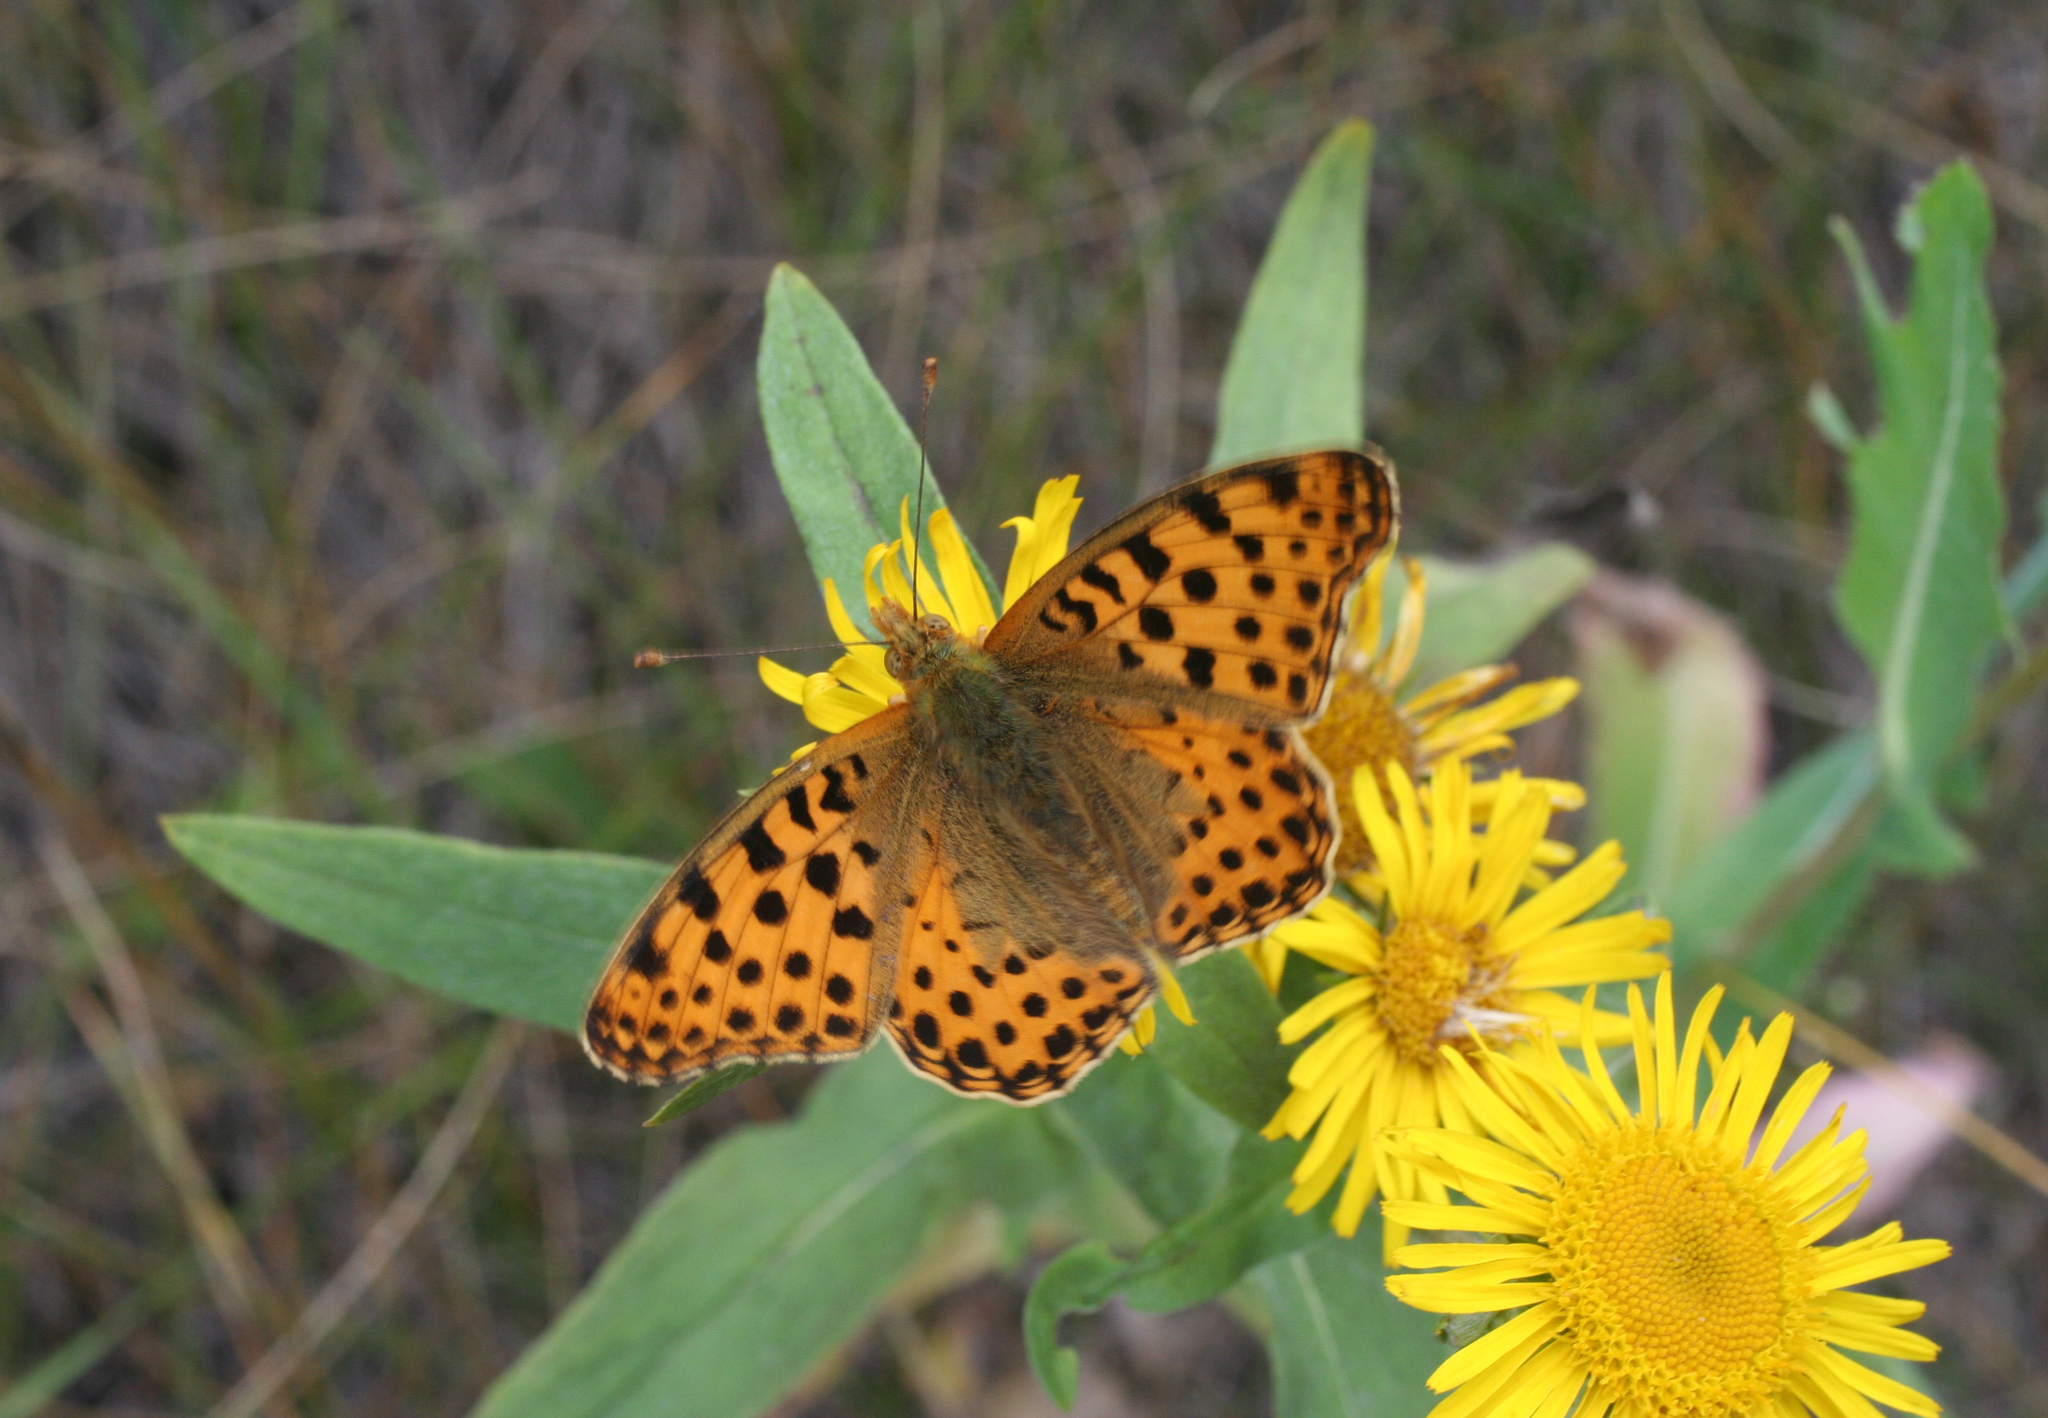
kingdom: Plantae
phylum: Tracheophyta
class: Magnoliopsida
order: Asterales
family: Asteraceae
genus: Pentanema
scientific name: Pentanema britannicum
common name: British elecampane
